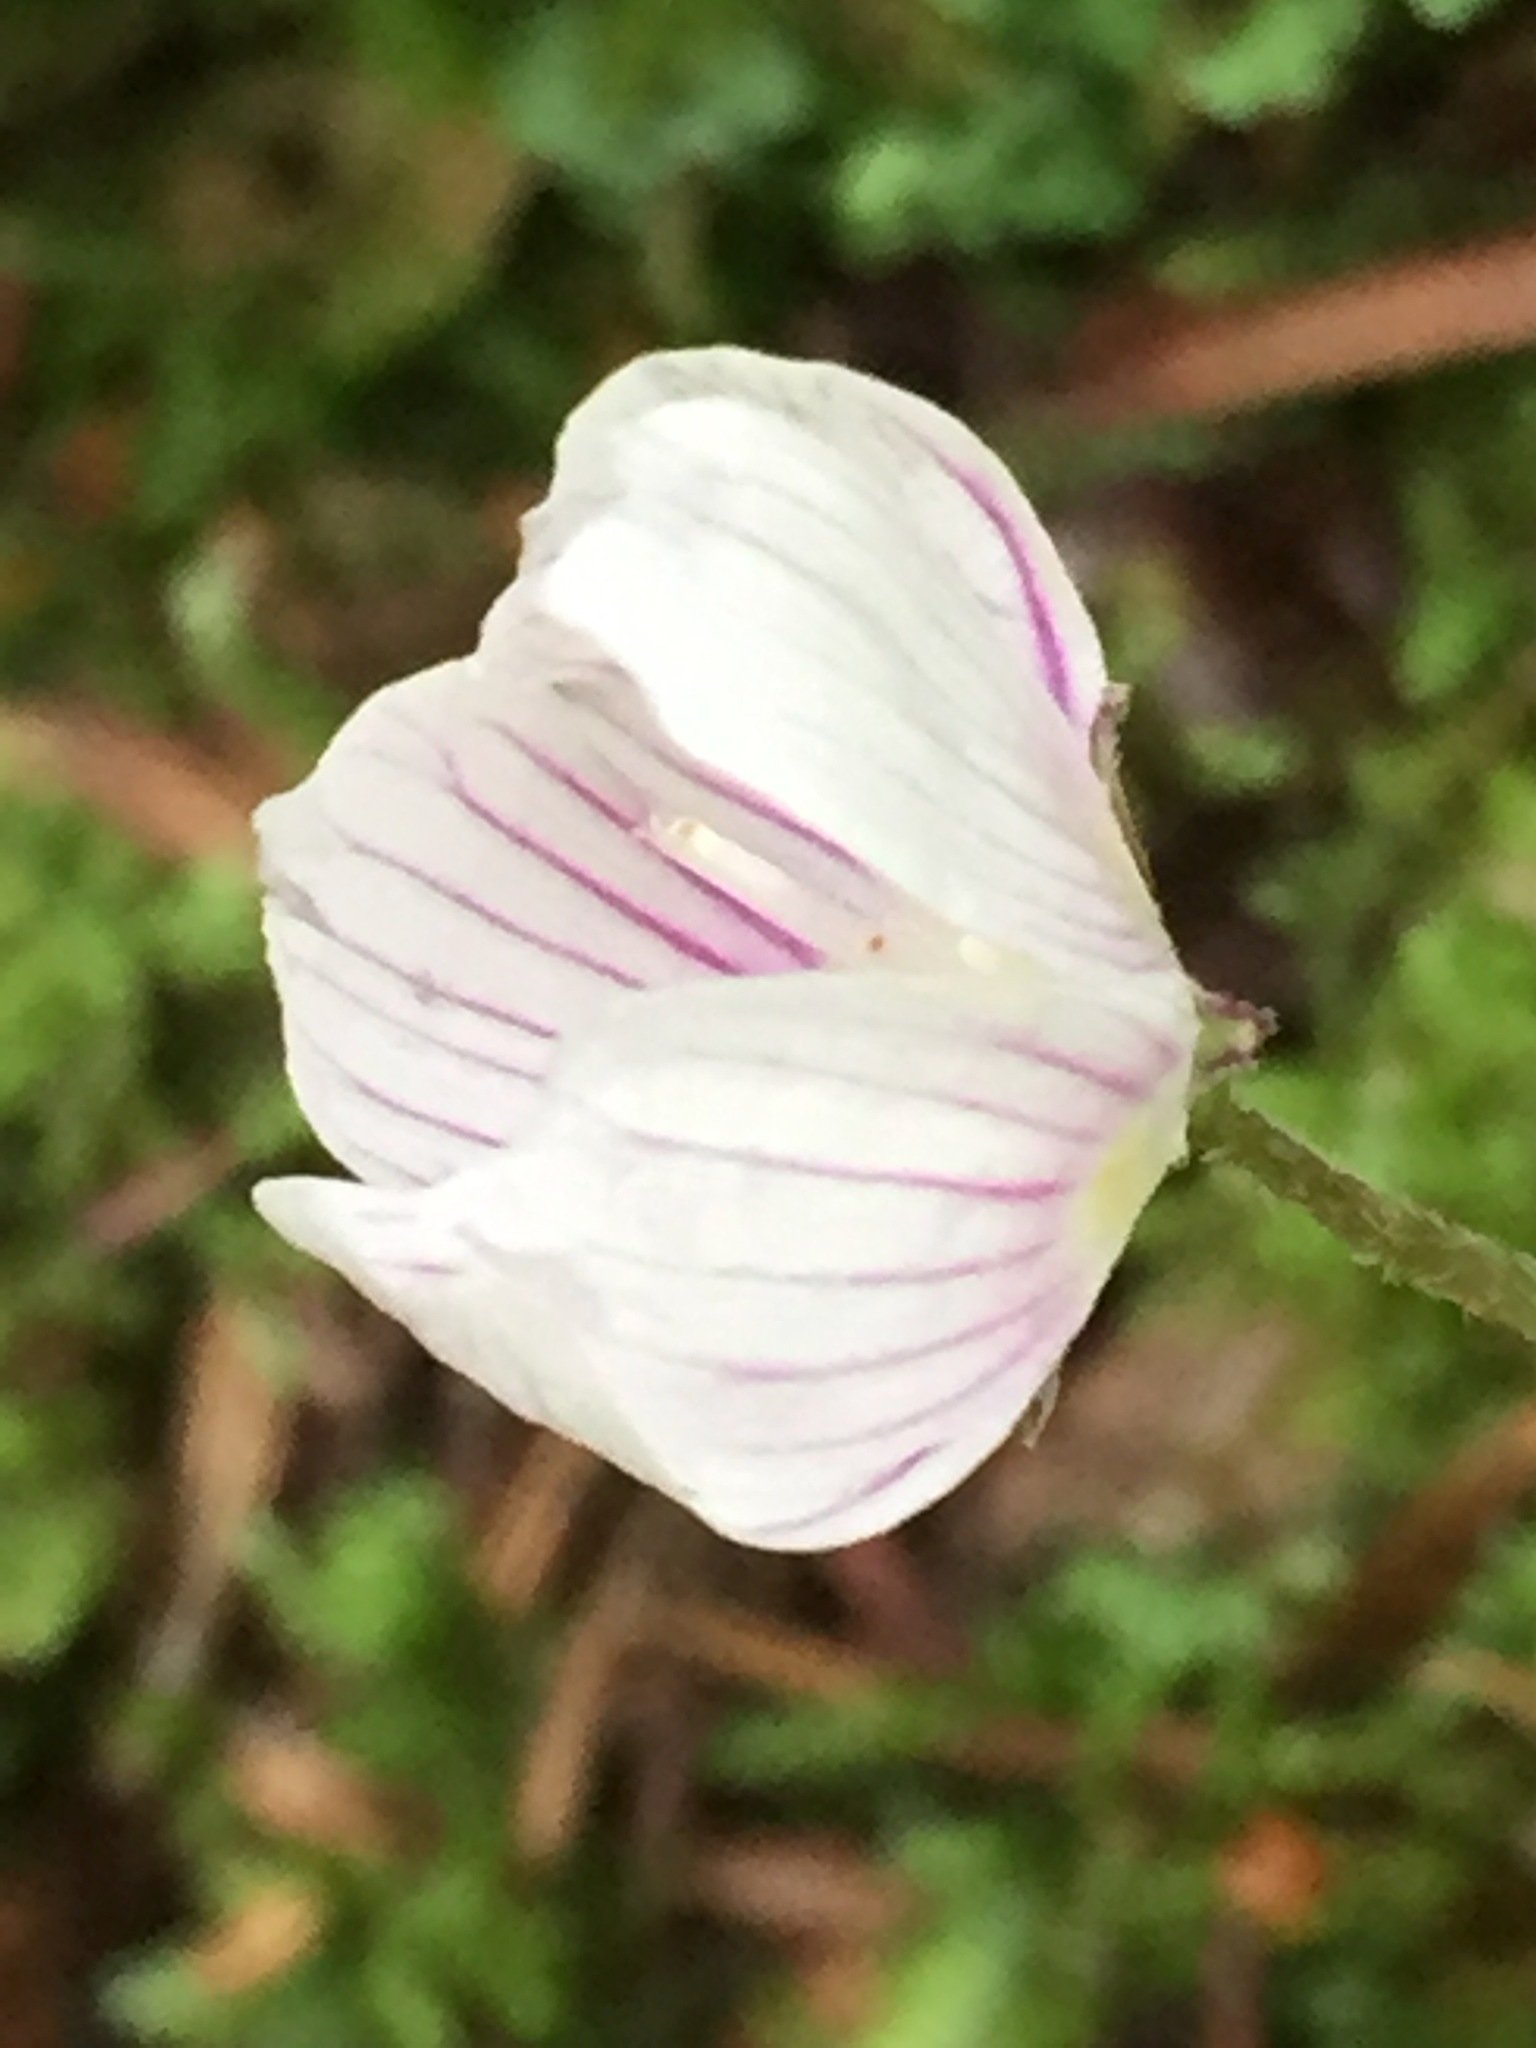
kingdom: Plantae
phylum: Tracheophyta
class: Magnoliopsida
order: Oxalidales
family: Oxalidaceae
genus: Oxalis
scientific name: Oxalis montana
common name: American wood-sorrel
